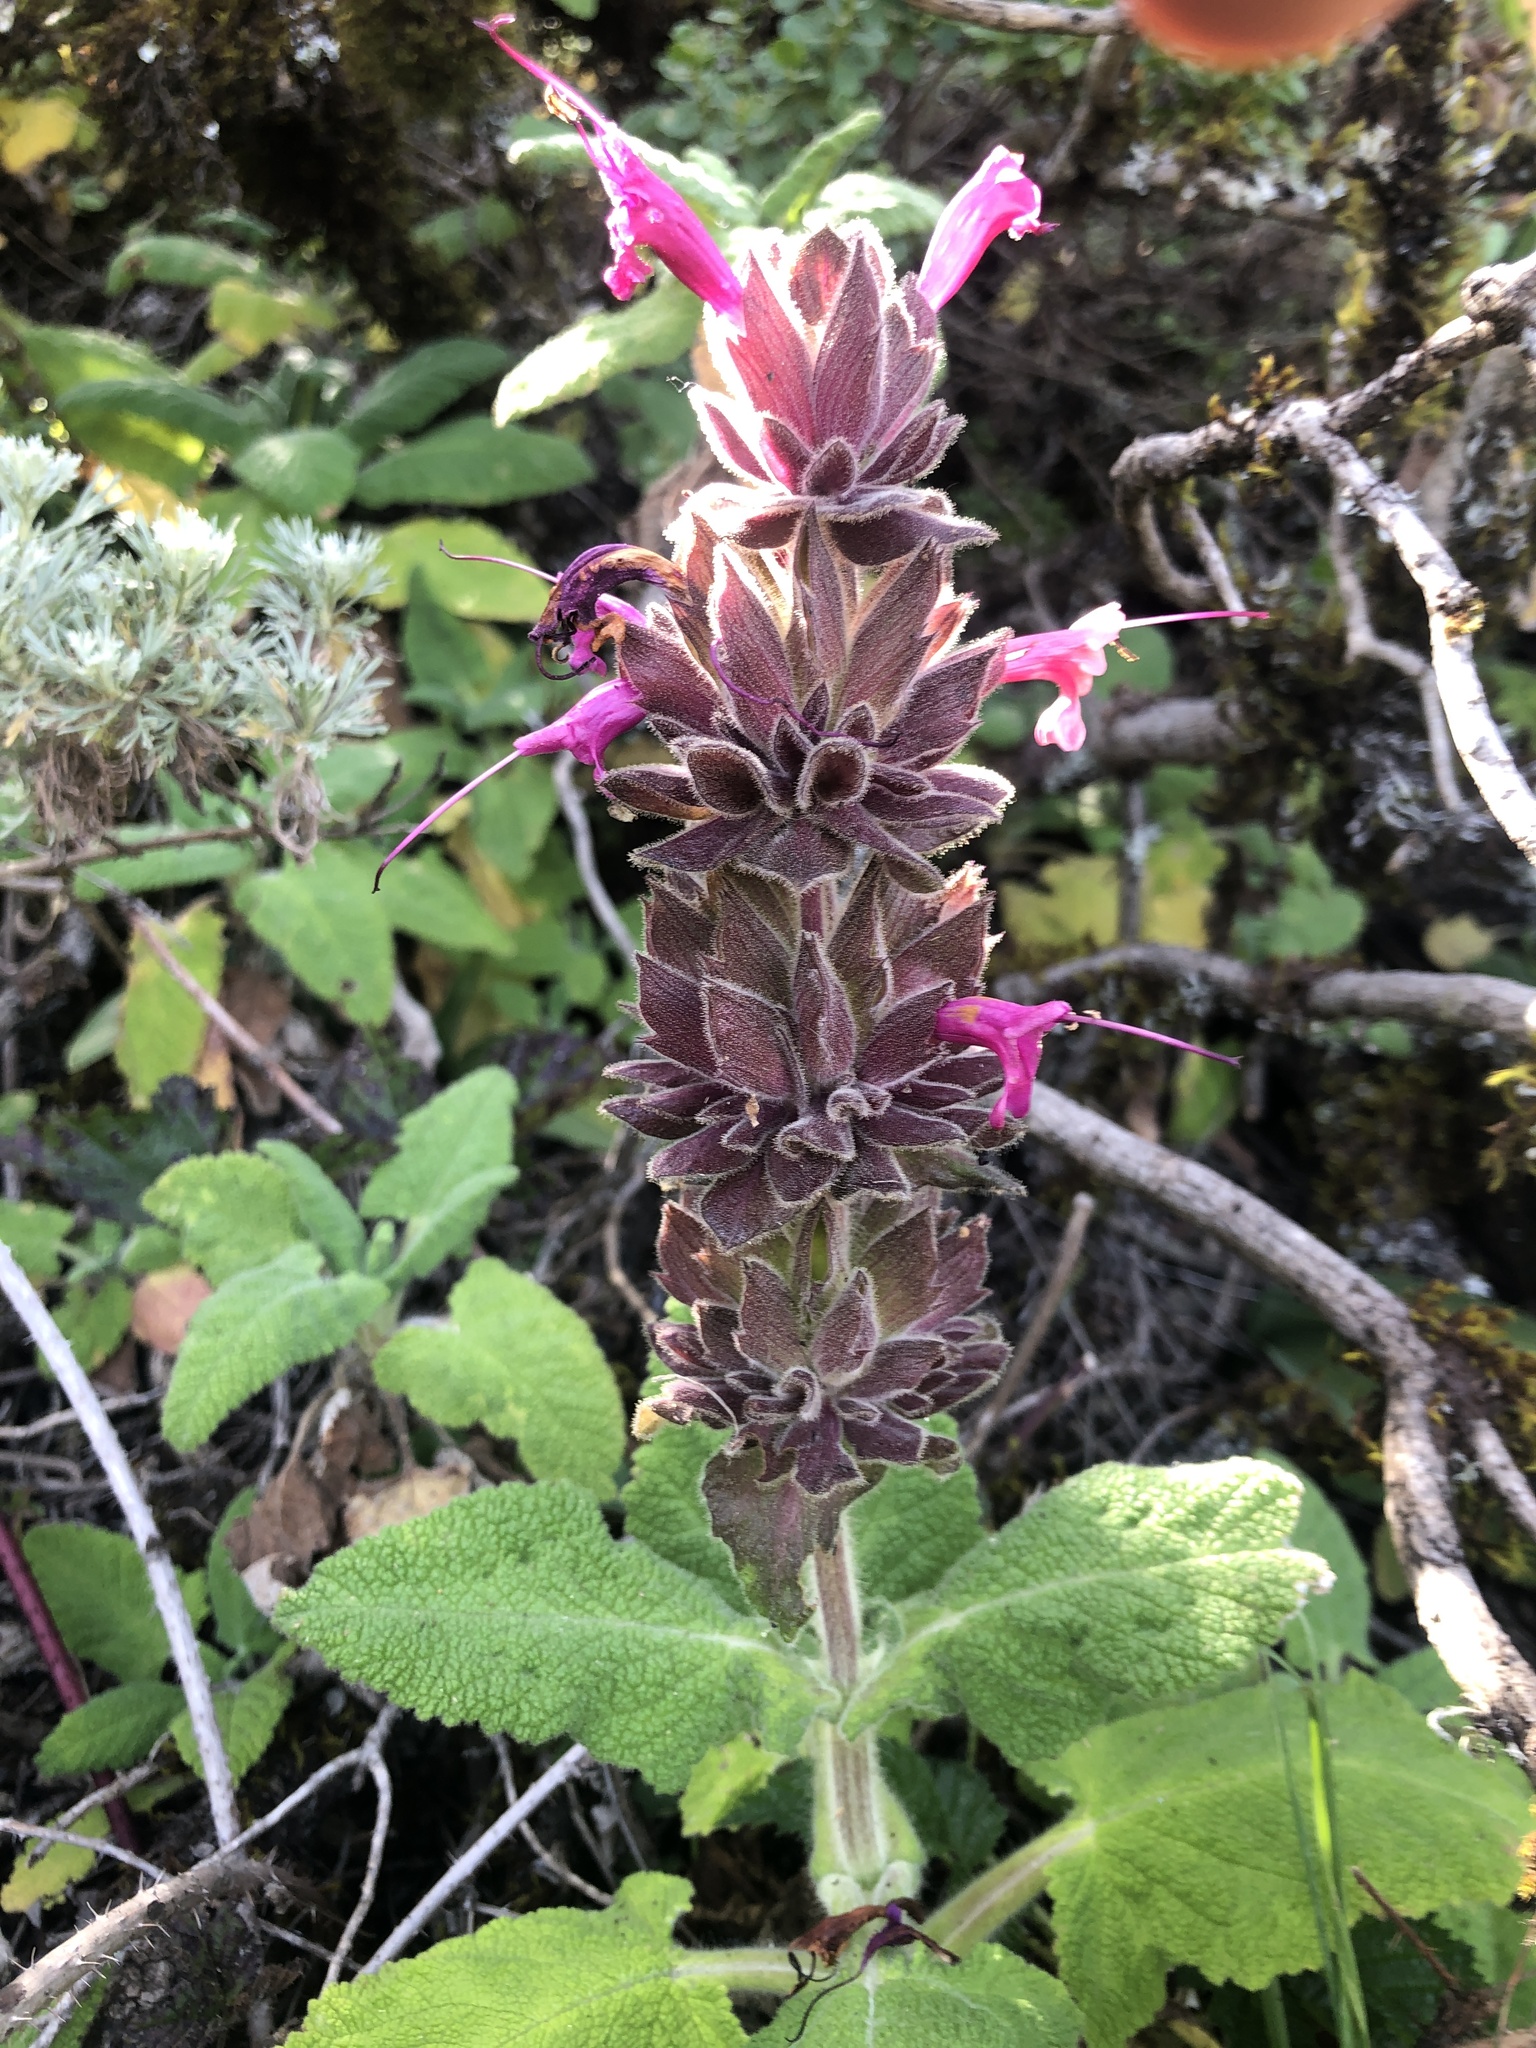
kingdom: Plantae
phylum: Tracheophyta
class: Magnoliopsida
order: Lamiales
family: Lamiaceae
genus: Salvia
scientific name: Salvia spathacea
